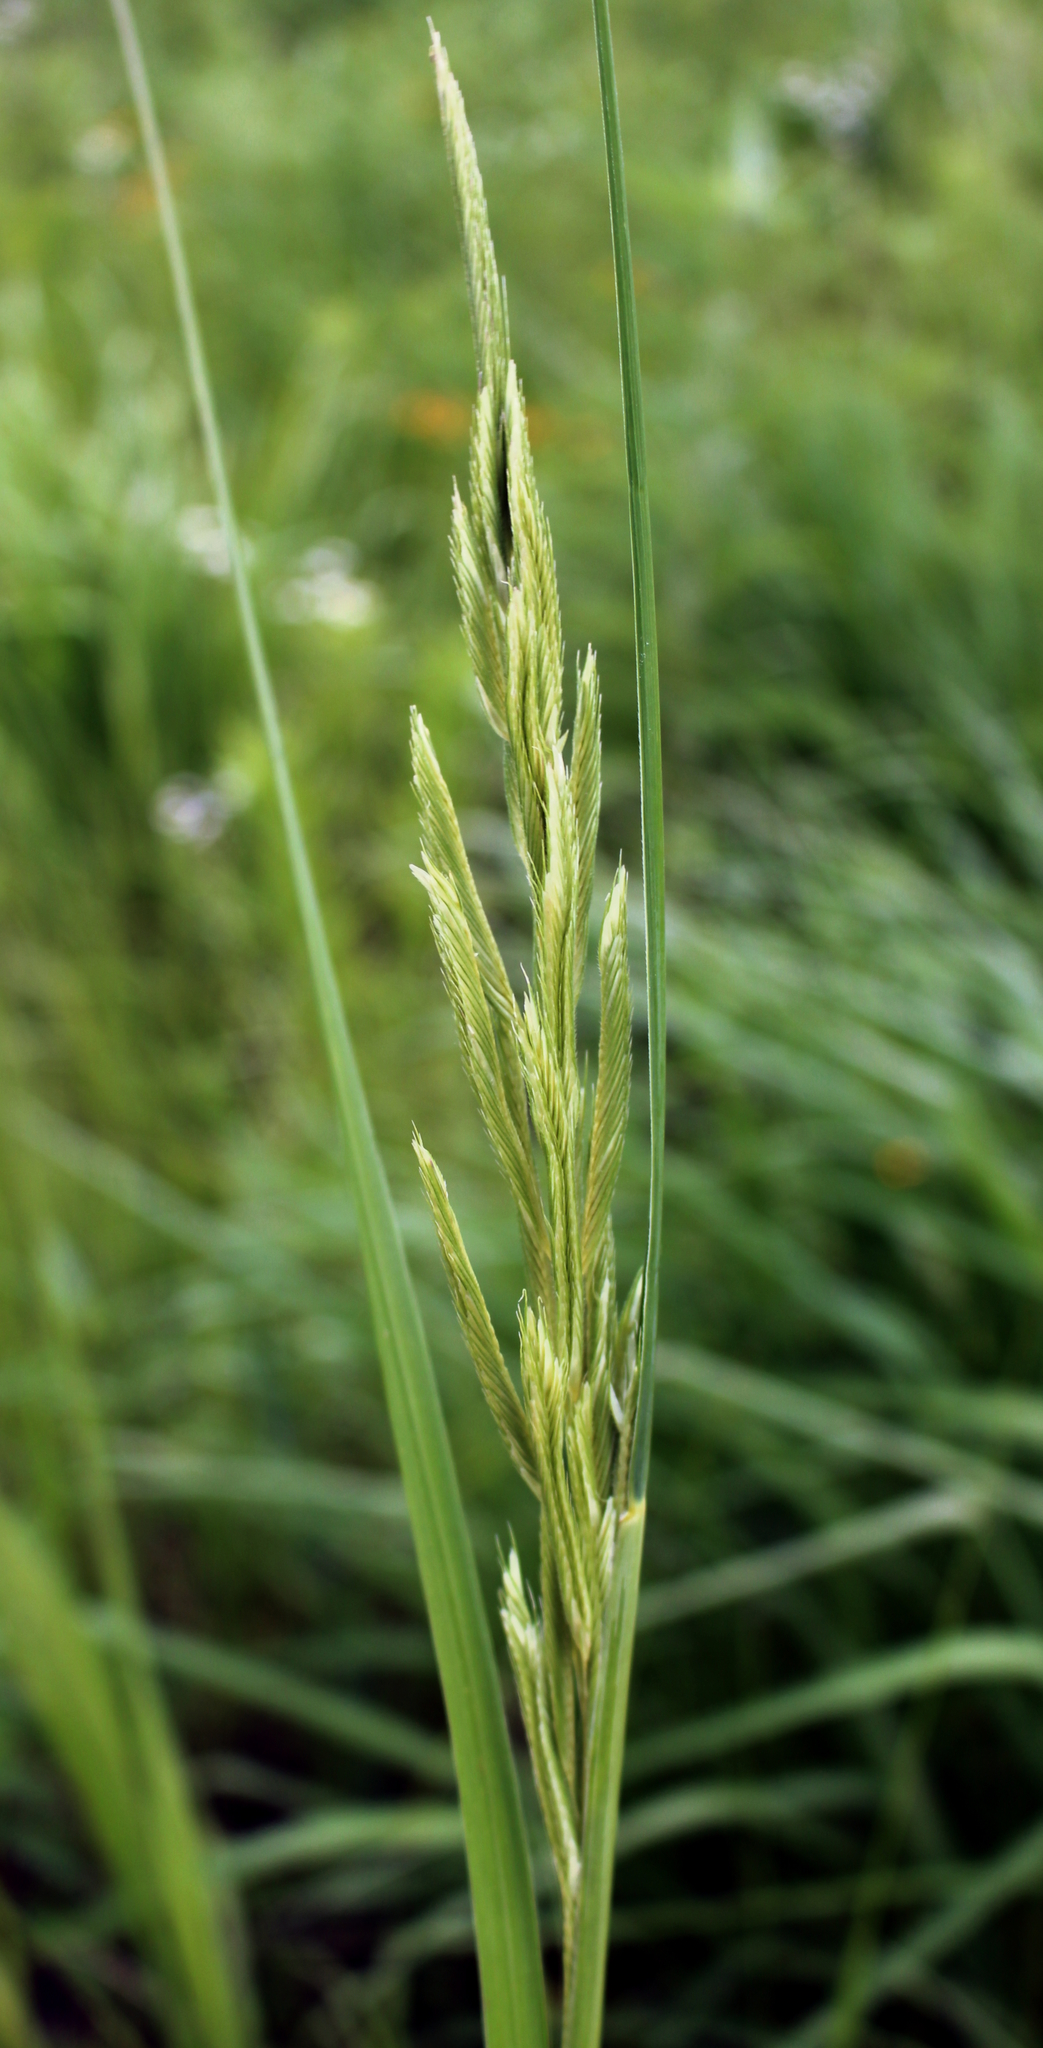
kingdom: Plantae
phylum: Tracheophyta
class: Liliopsida
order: Poales
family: Poaceae
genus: Sporobolus
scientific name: Sporobolus michauxianus
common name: Freshwater cordgrass
